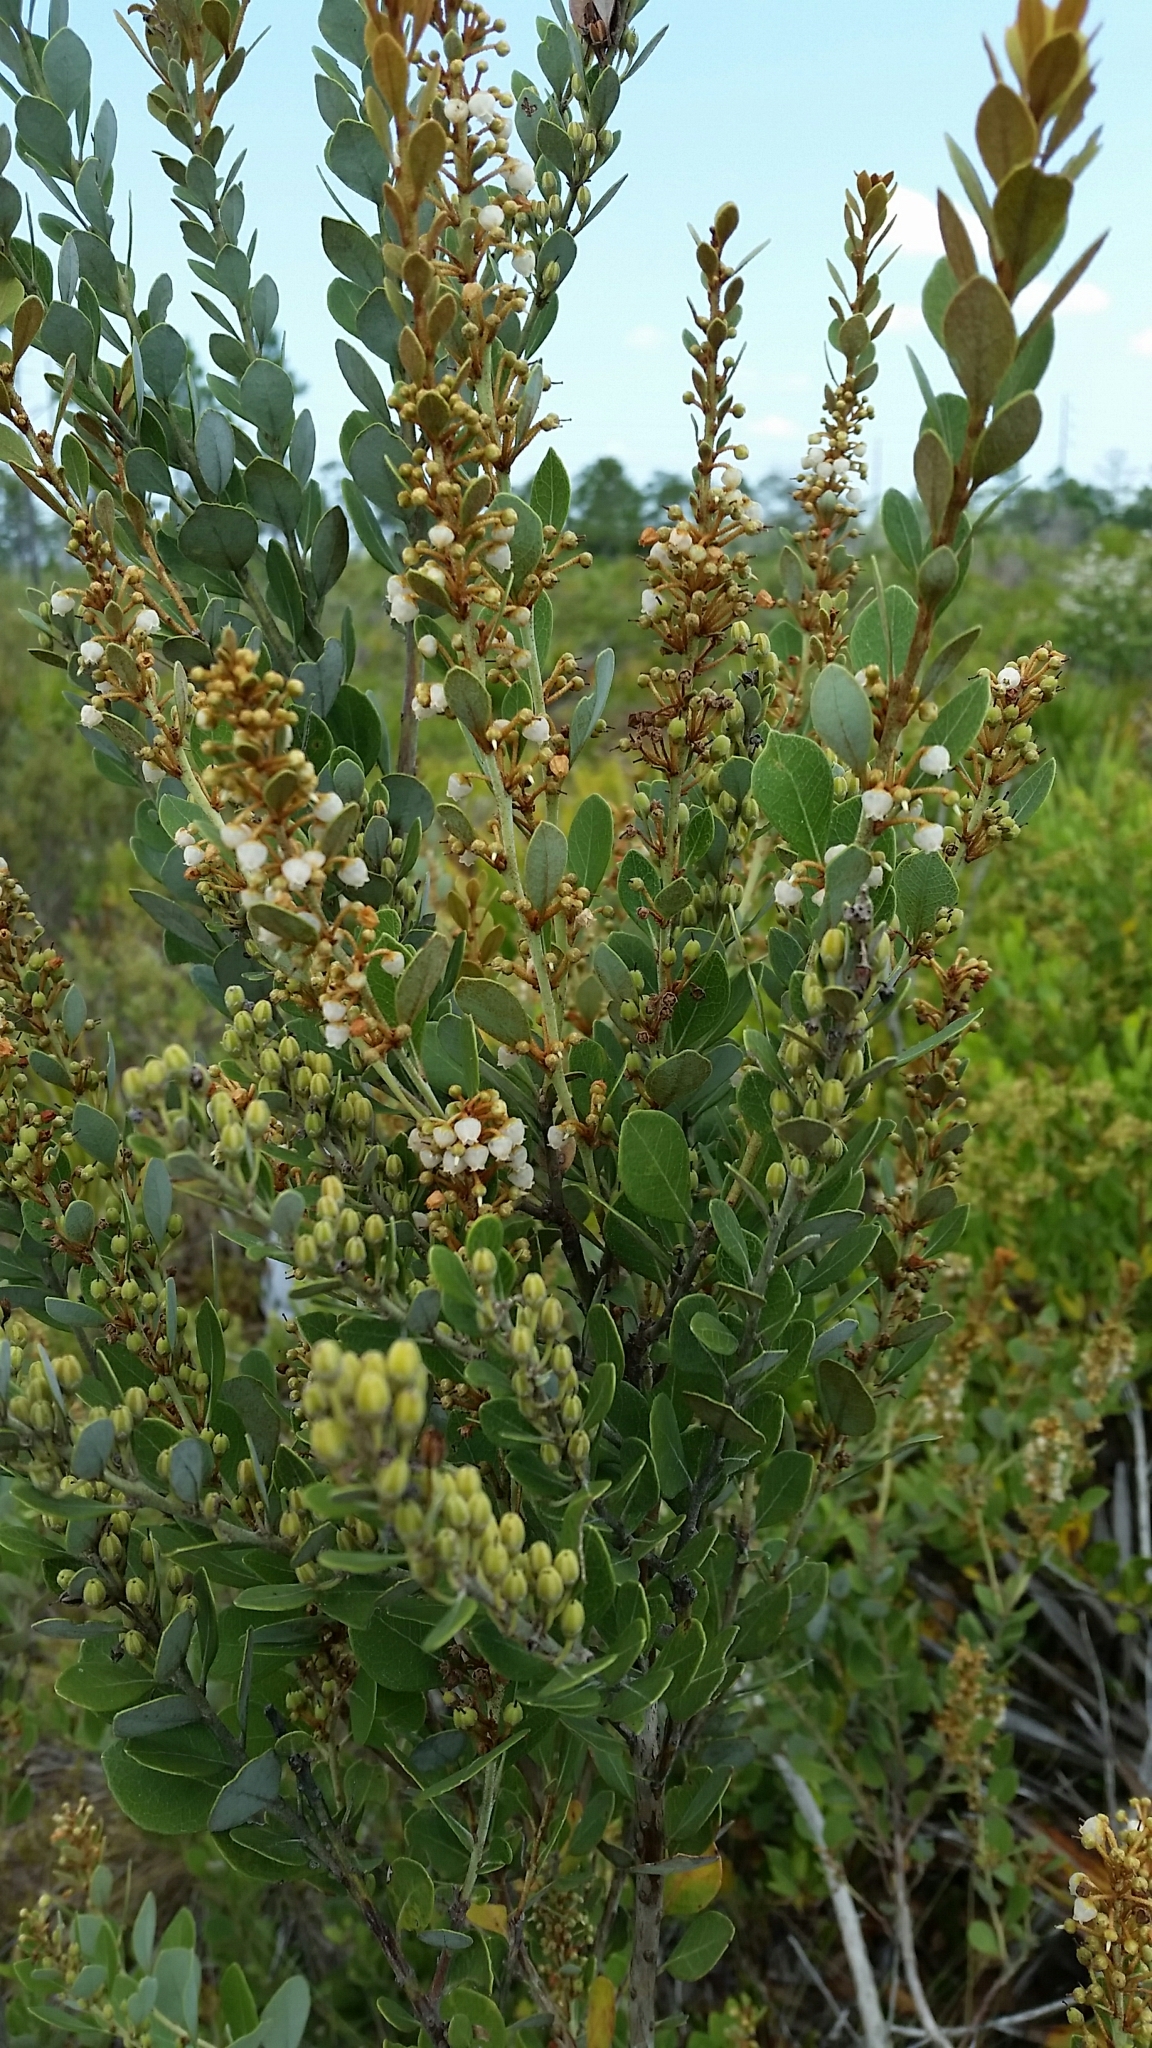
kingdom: Plantae
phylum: Tracheophyta
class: Magnoliopsida
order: Ericales
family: Ericaceae
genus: Lyonia
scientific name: Lyonia fruticosa
